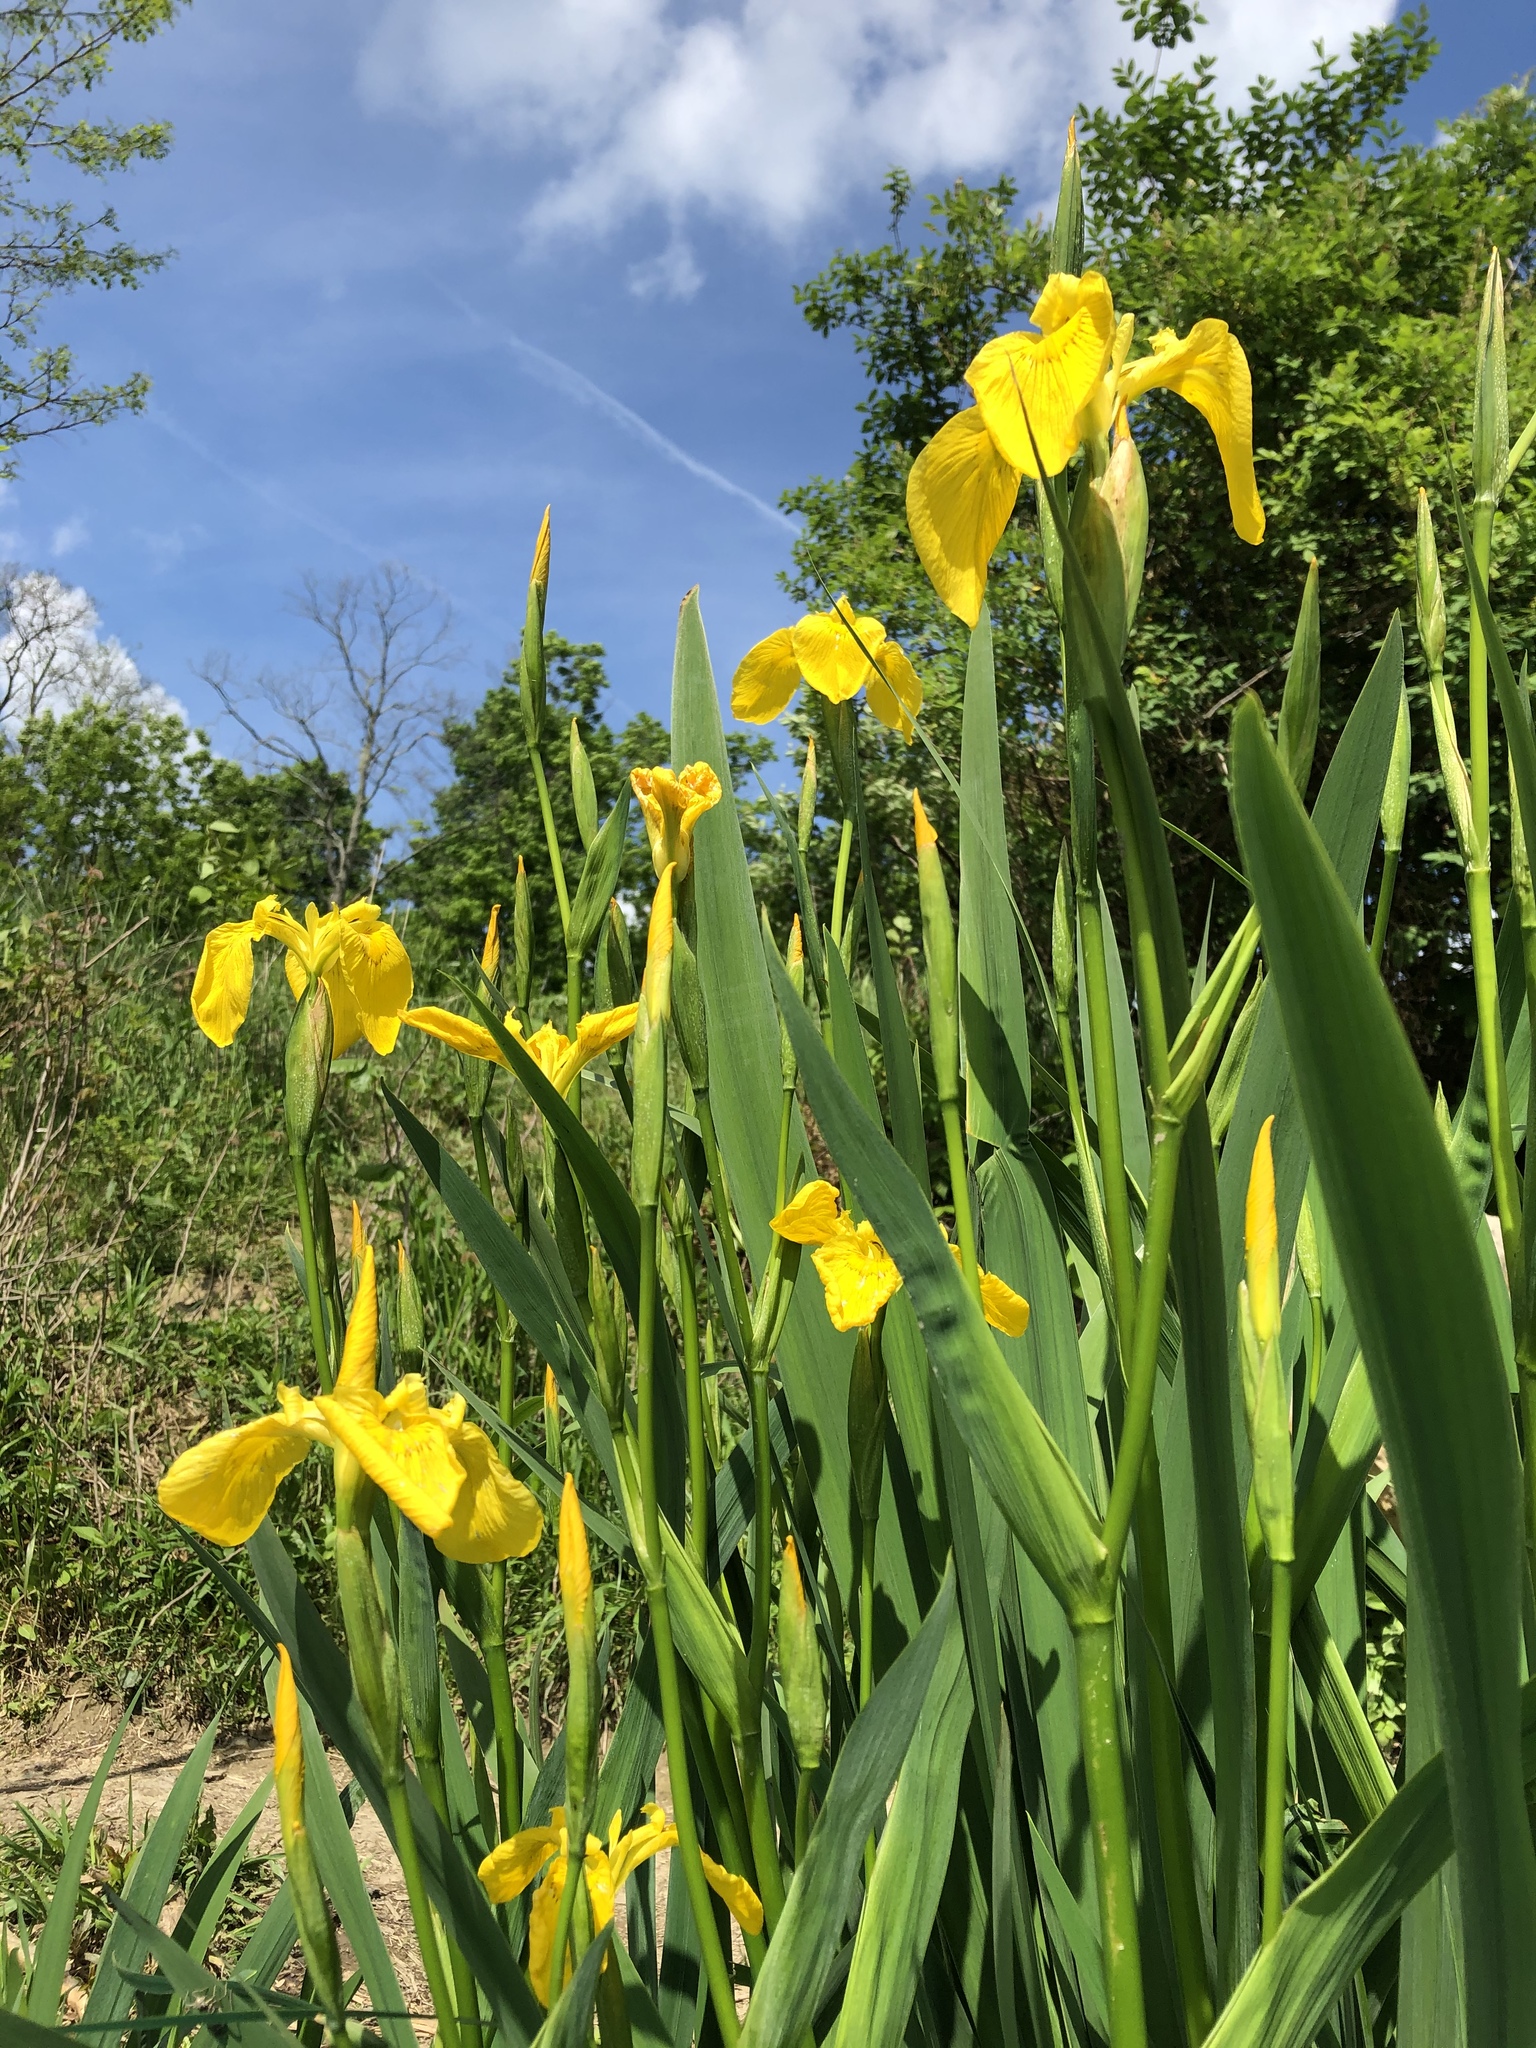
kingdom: Plantae
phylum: Tracheophyta
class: Liliopsida
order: Asparagales
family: Iridaceae
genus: Iris
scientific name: Iris pseudacorus
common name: Yellow flag
